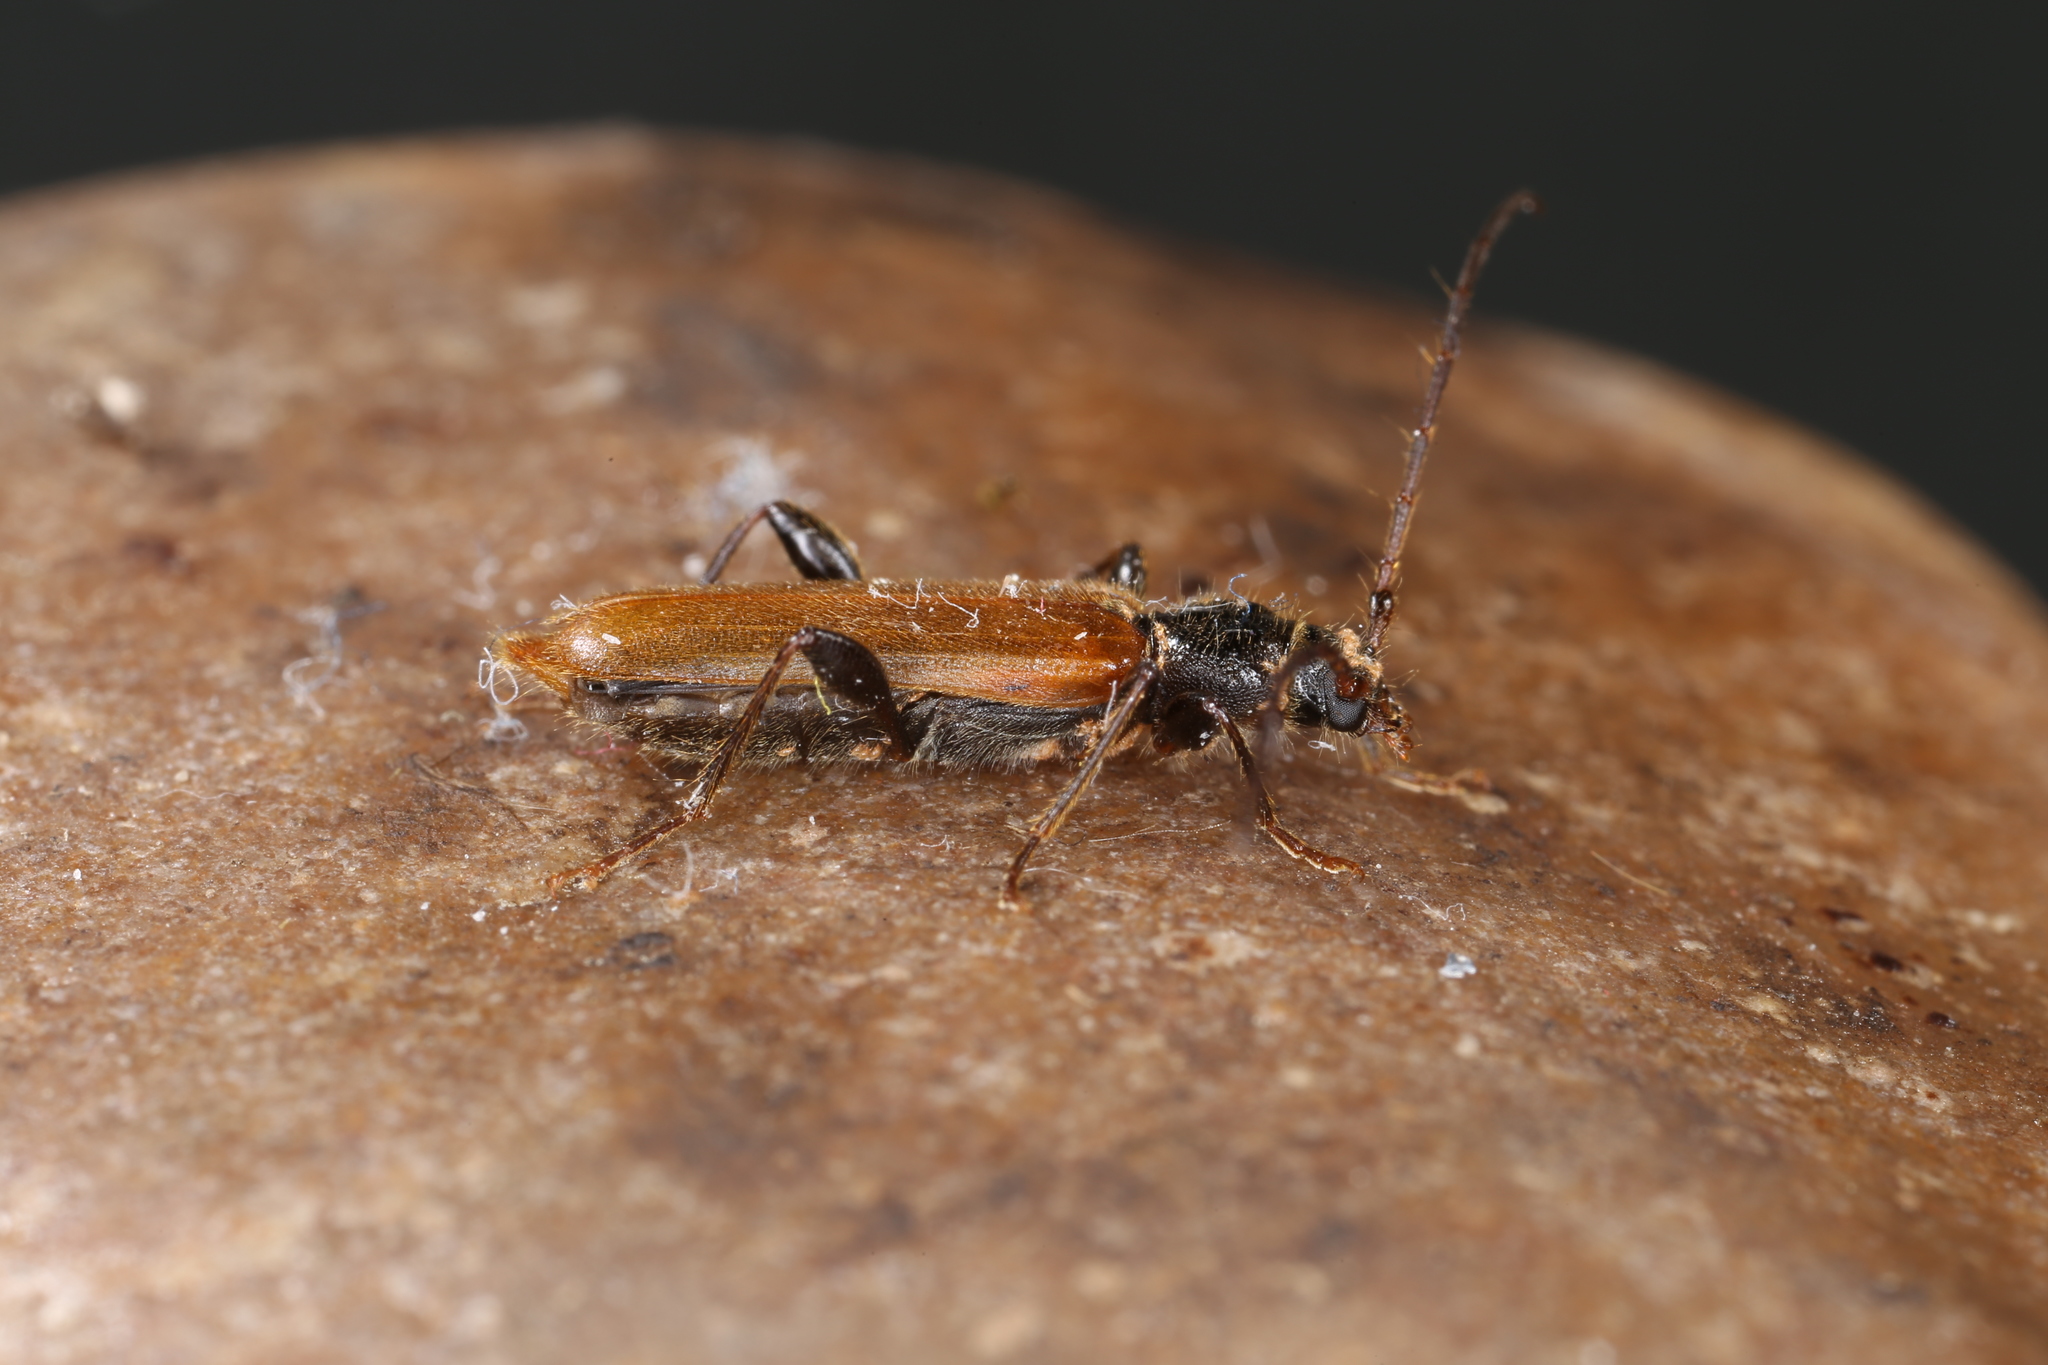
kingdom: Animalia
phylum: Arthropoda
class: Insecta
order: Coleoptera
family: Cerambycidae
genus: Phymatodes
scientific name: Phymatodes testaceus
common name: Long-horned beetle
